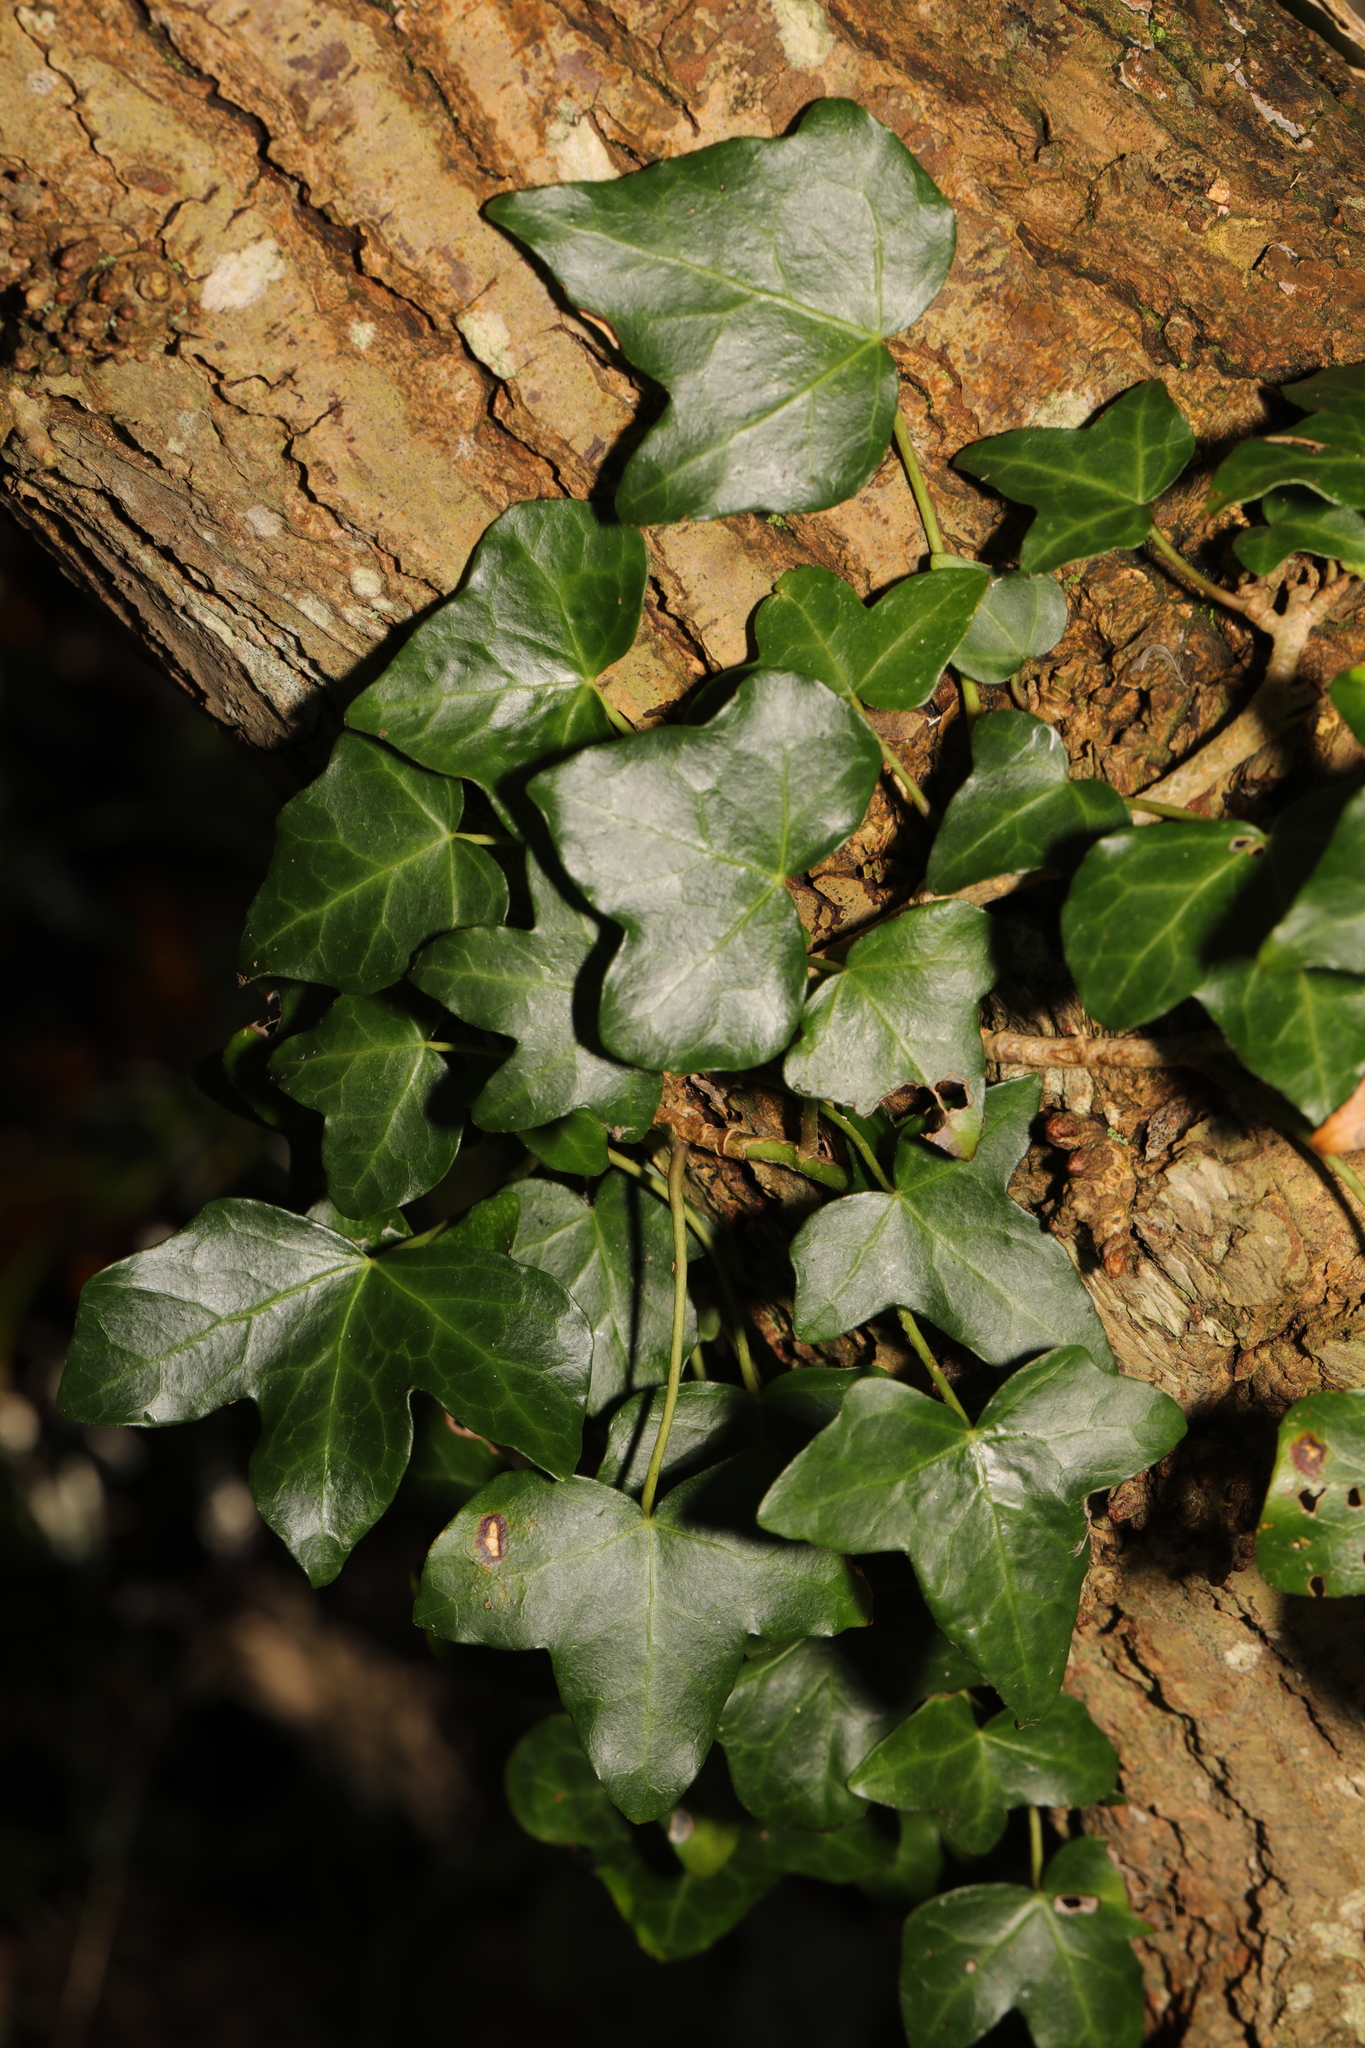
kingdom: Plantae
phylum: Tracheophyta
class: Magnoliopsida
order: Apiales
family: Araliaceae
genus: Hedera
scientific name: Hedera helix
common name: Ivy
